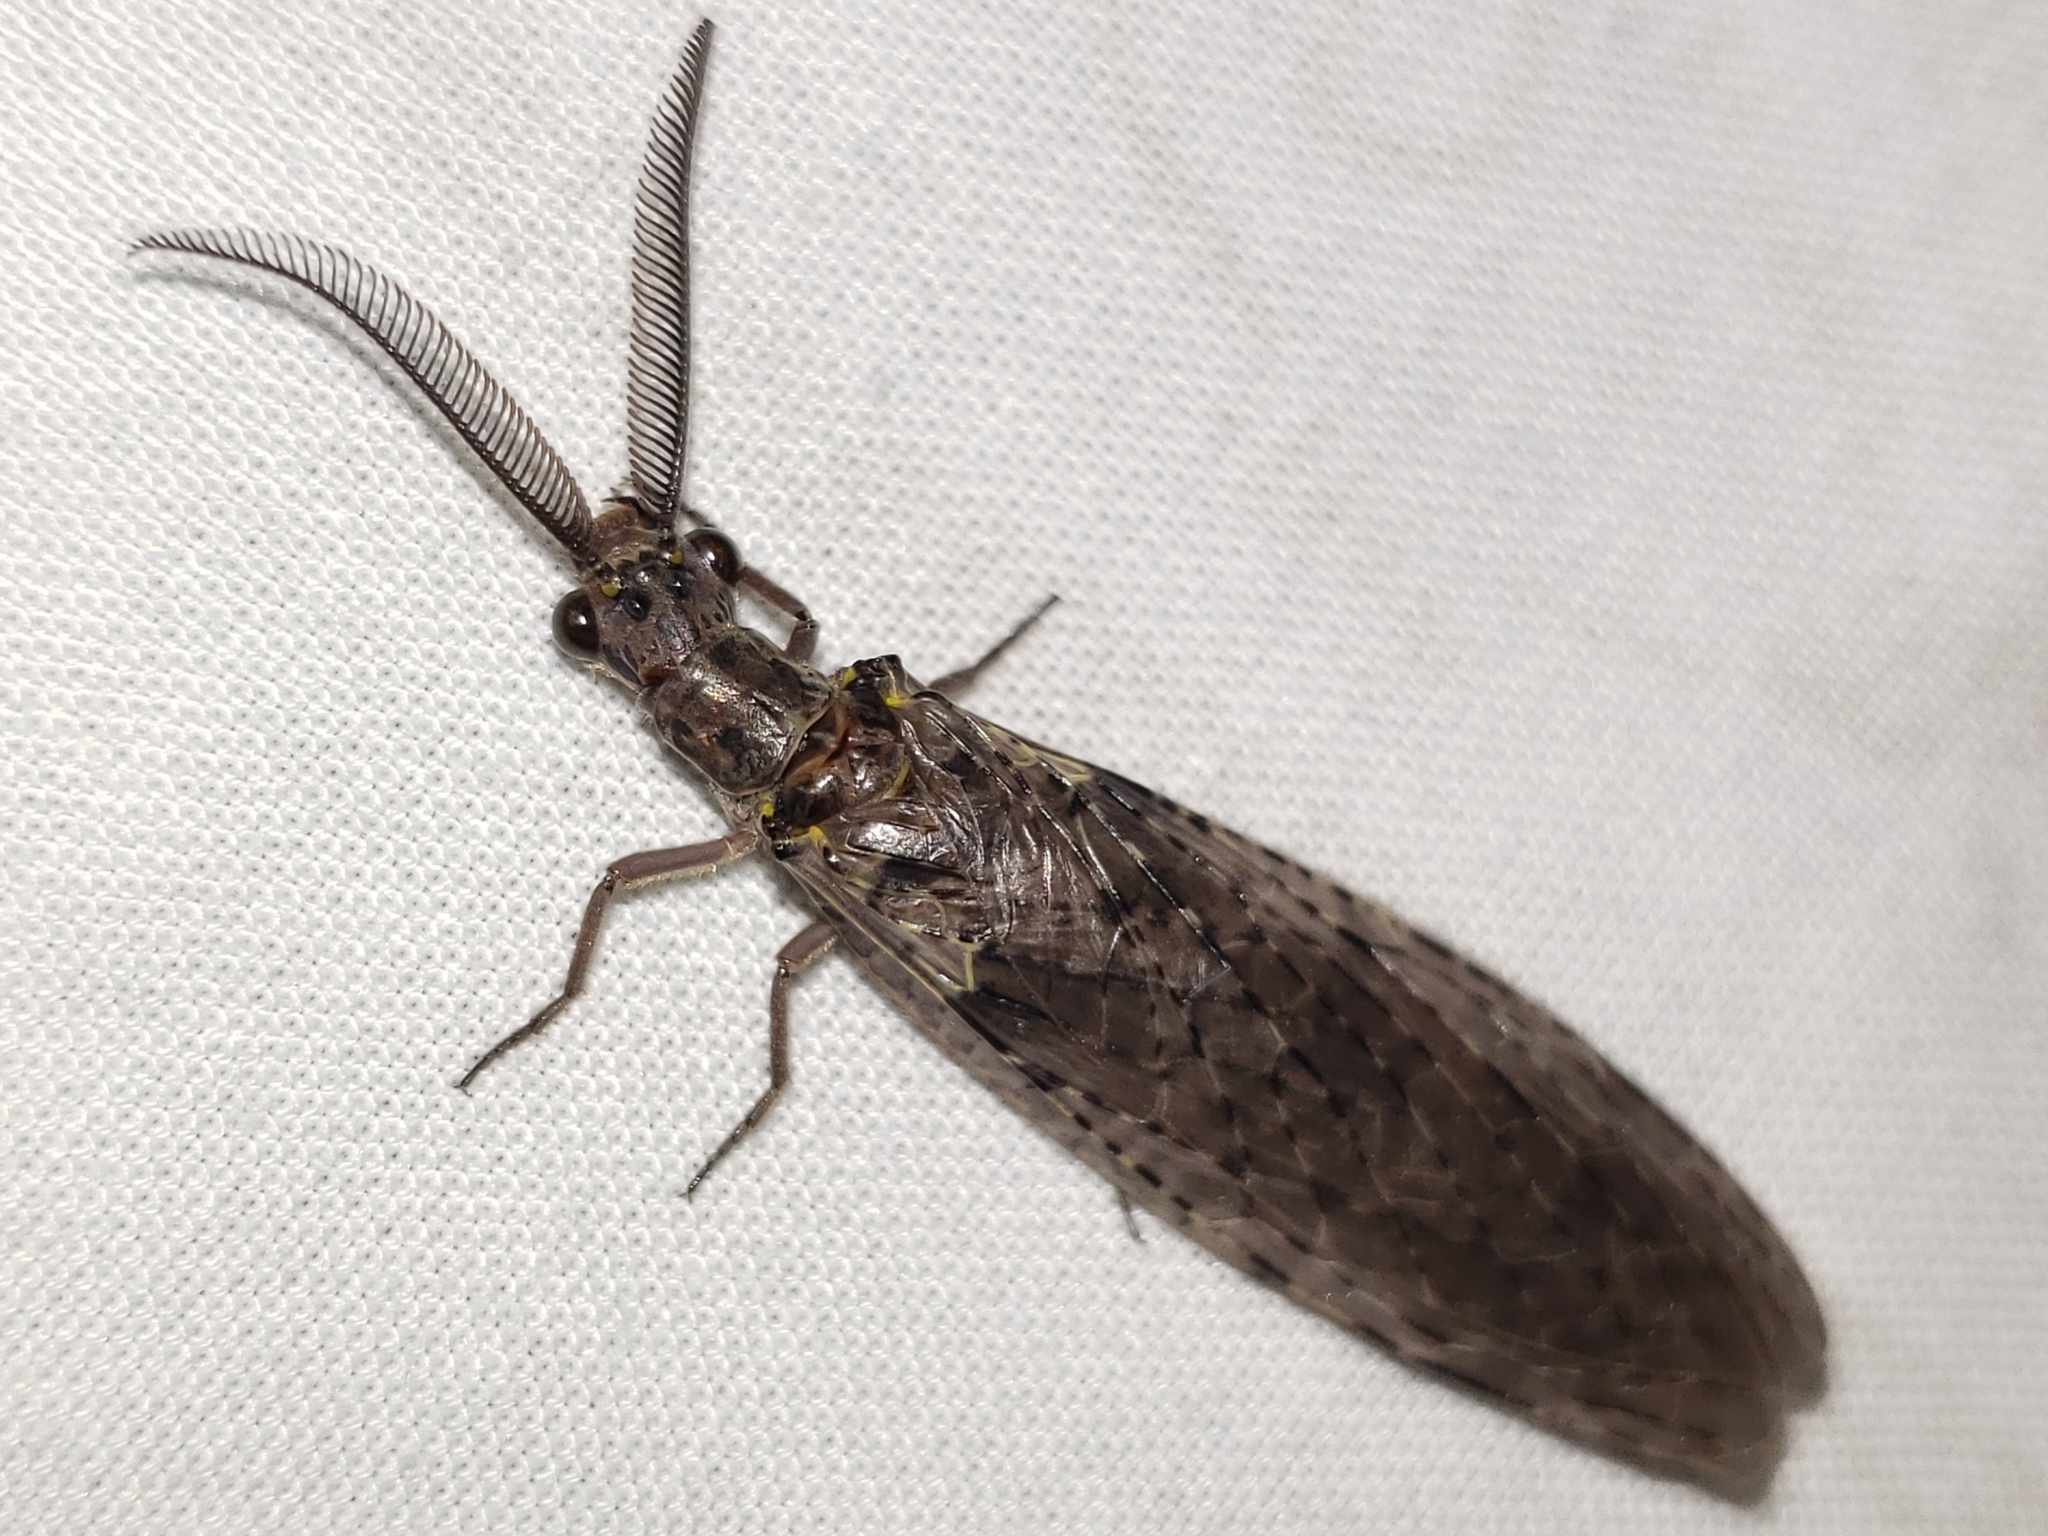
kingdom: Animalia
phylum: Arthropoda
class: Insecta
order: Megaloptera
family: Corydalidae
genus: Chauliodes
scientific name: Chauliodes rastricornis
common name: Spring fishfly
